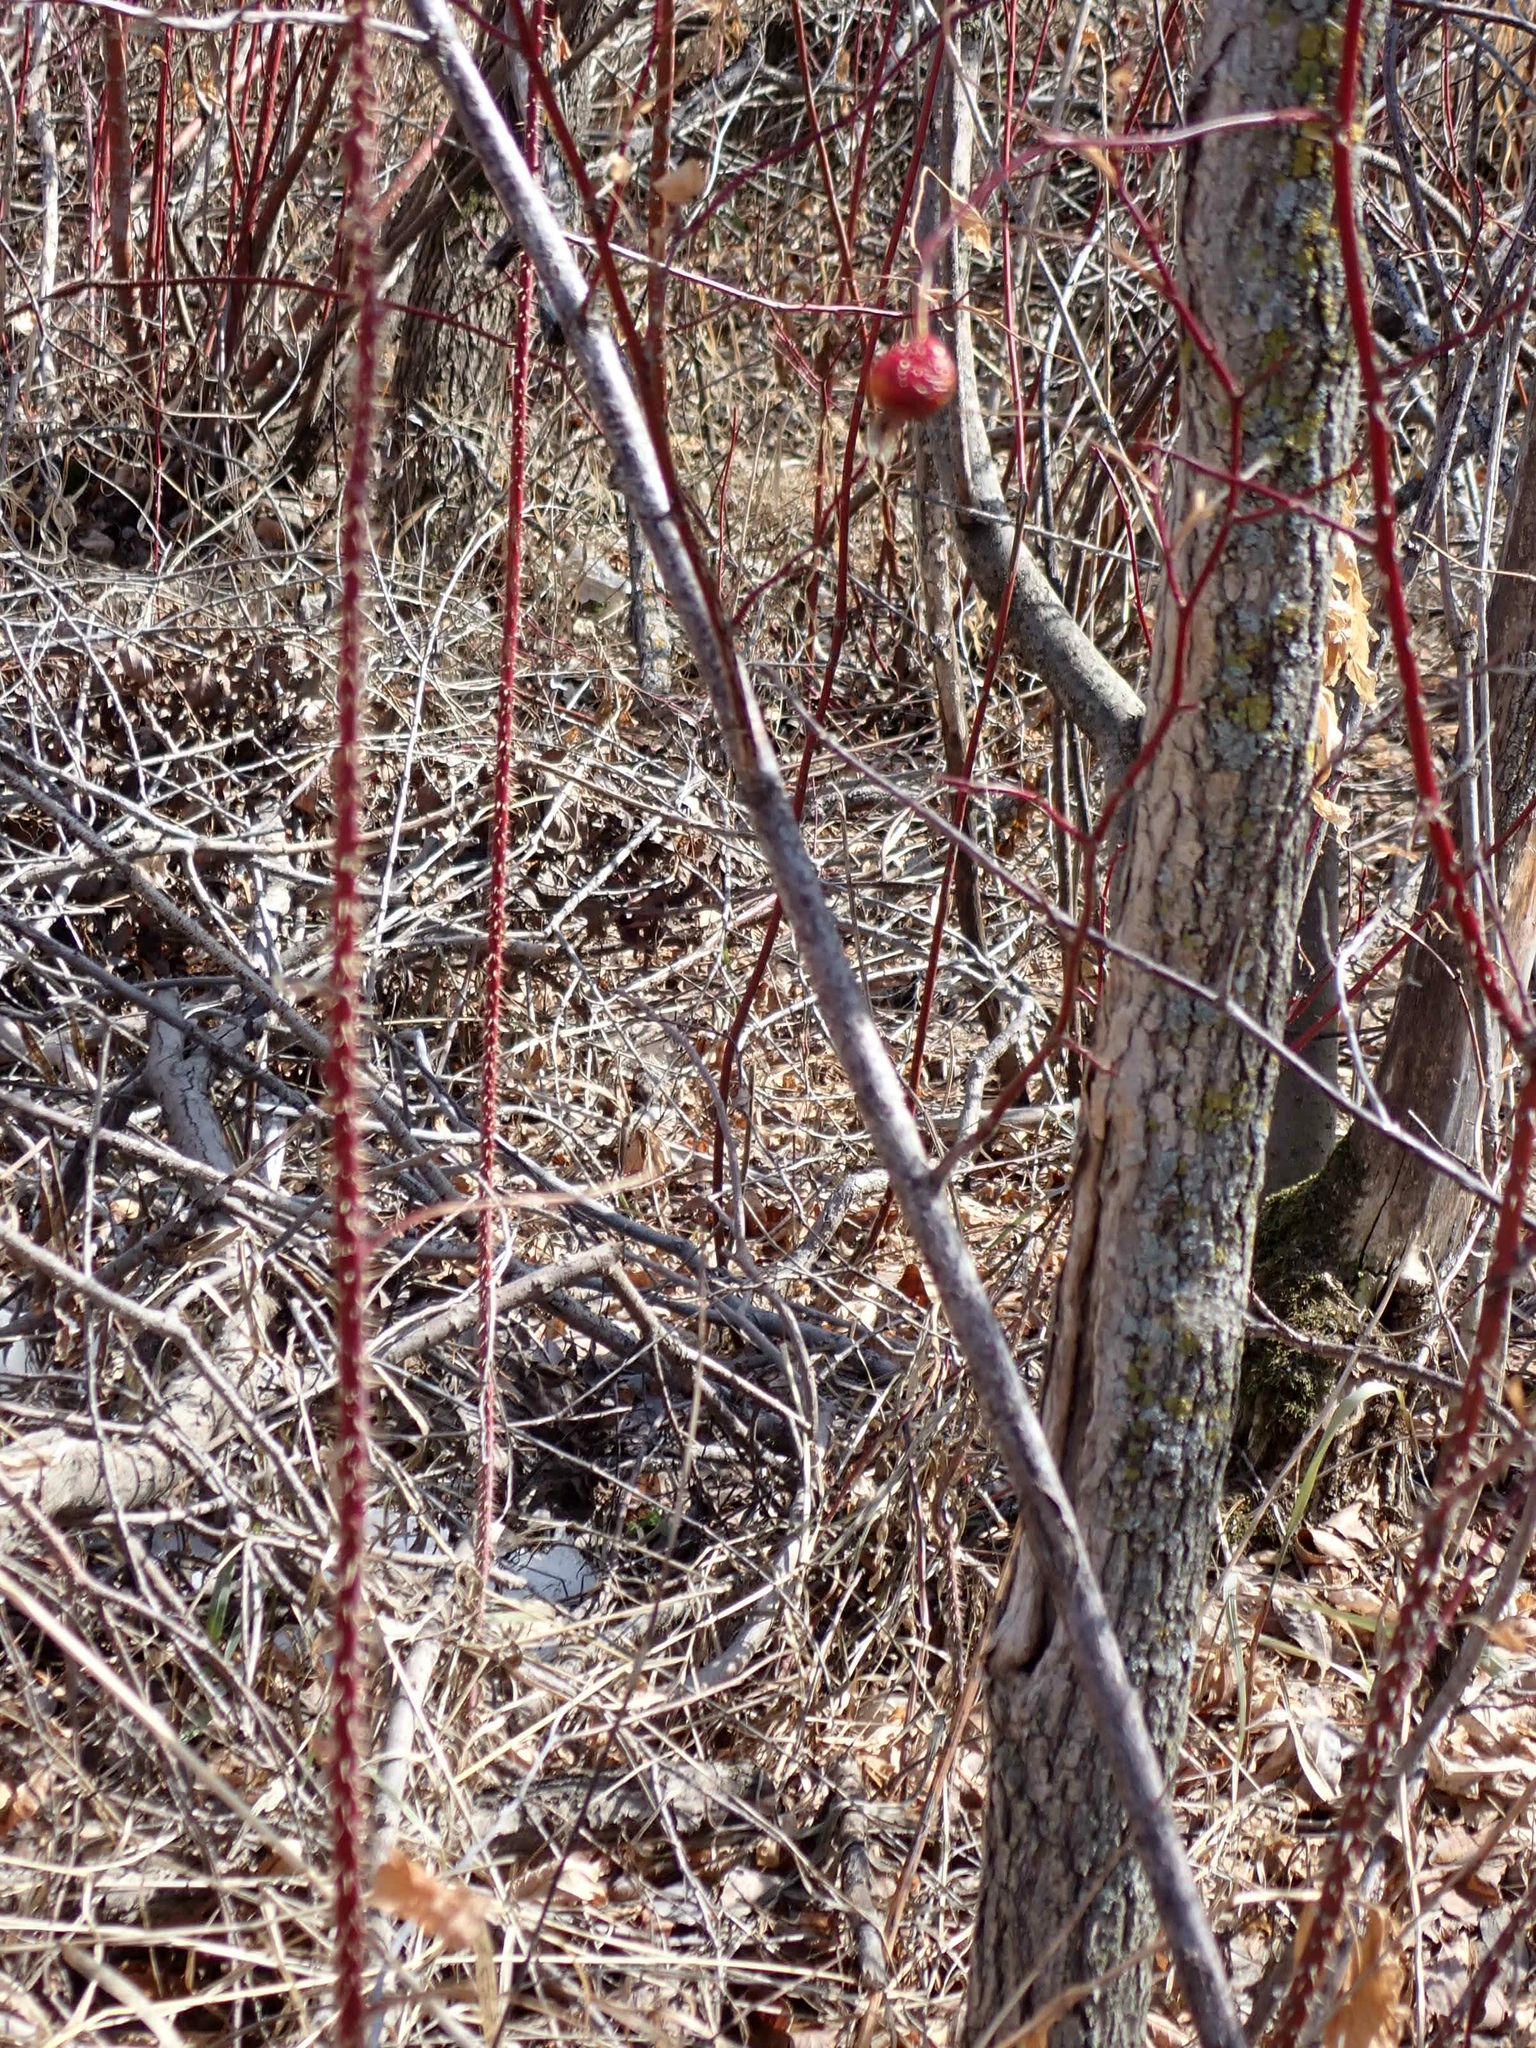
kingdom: Plantae
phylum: Tracheophyta
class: Magnoliopsida
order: Rosales
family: Rosaceae
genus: Rosa
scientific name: Rosa woodsii
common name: Woods's rose
